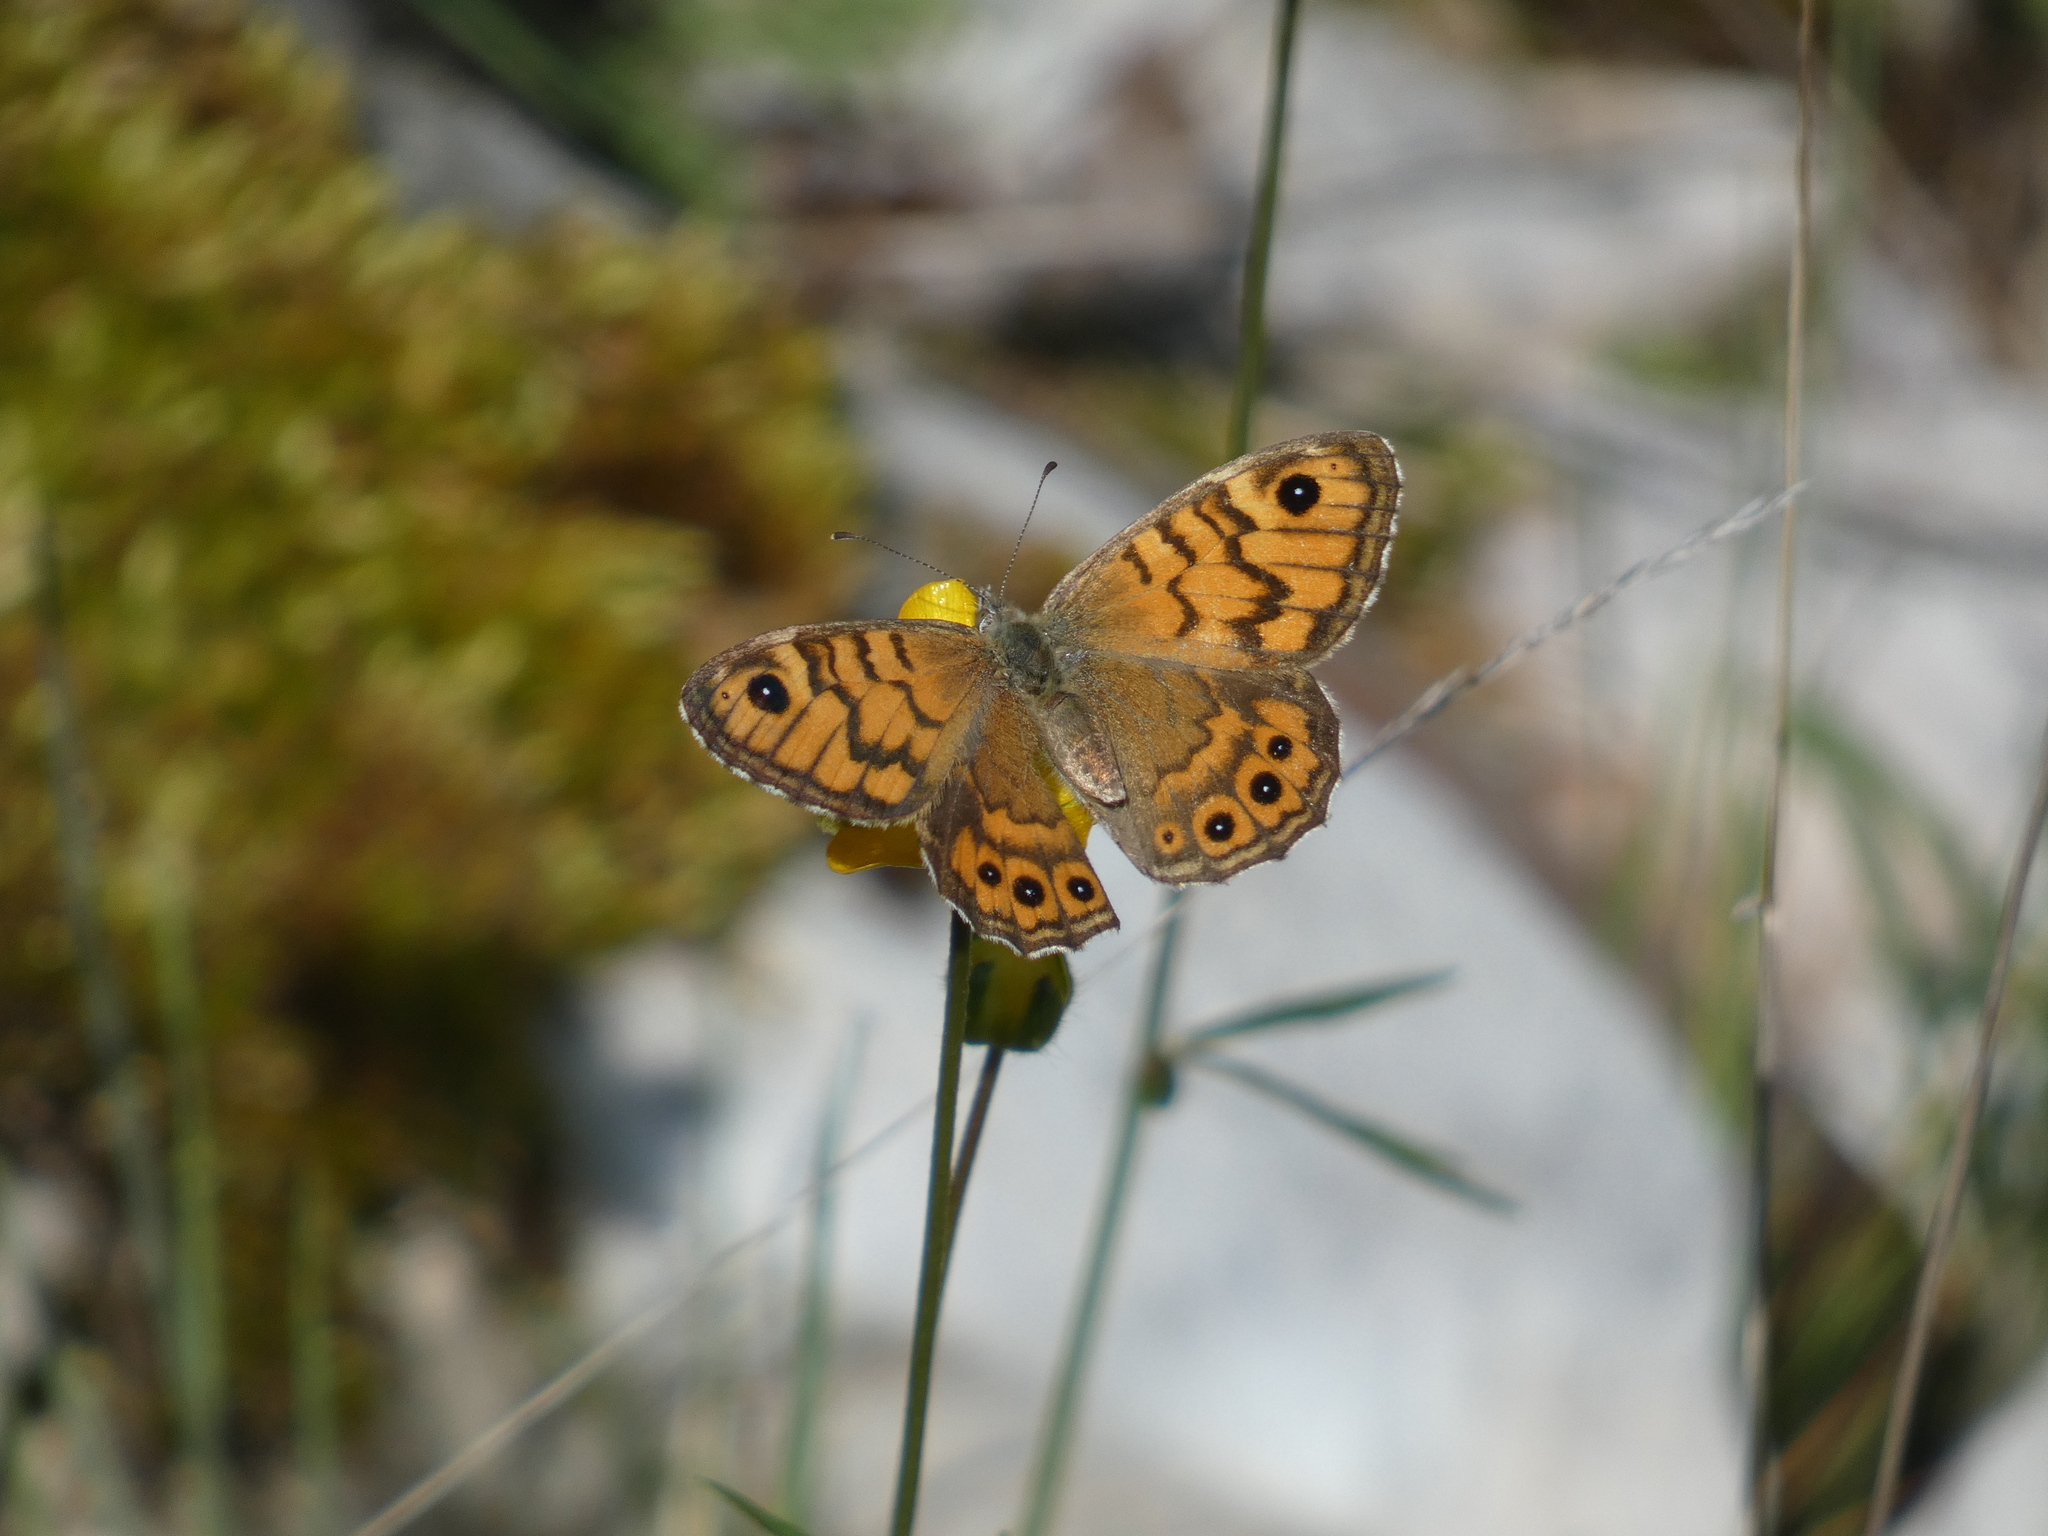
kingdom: Animalia
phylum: Arthropoda
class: Insecta
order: Lepidoptera
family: Nymphalidae
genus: Pararge
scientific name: Pararge Lasiommata megera
